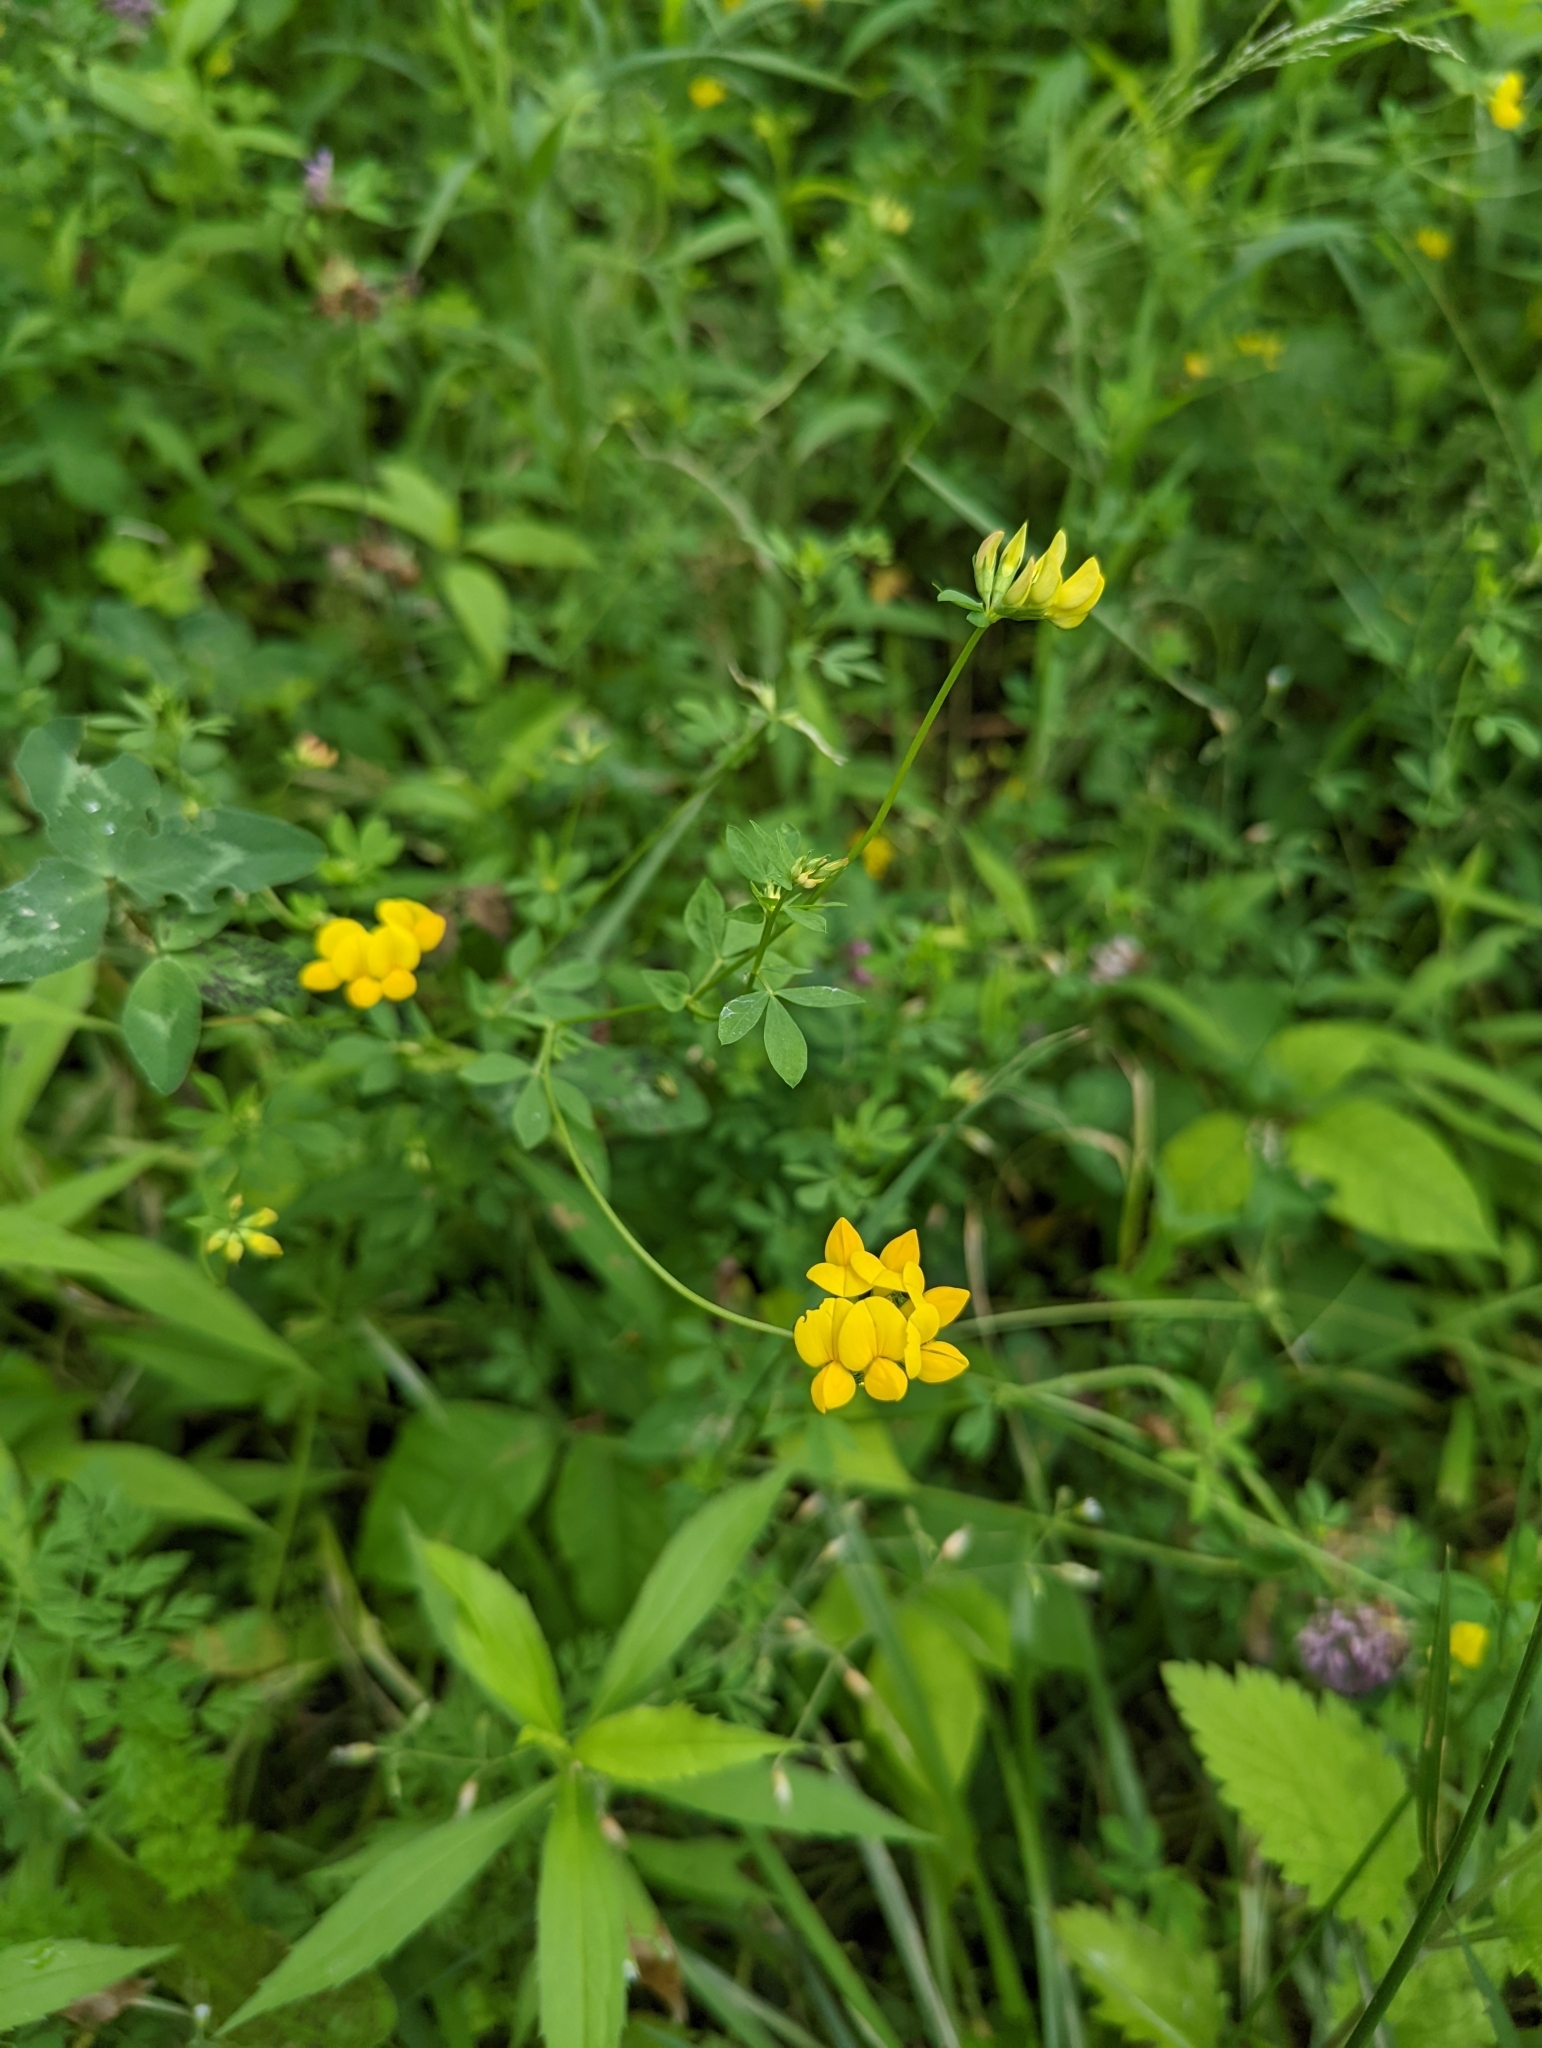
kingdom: Plantae
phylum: Tracheophyta
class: Magnoliopsida
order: Fabales
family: Fabaceae
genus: Lotus
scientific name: Lotus corniculatus
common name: Common bird's-foot-trefoil
